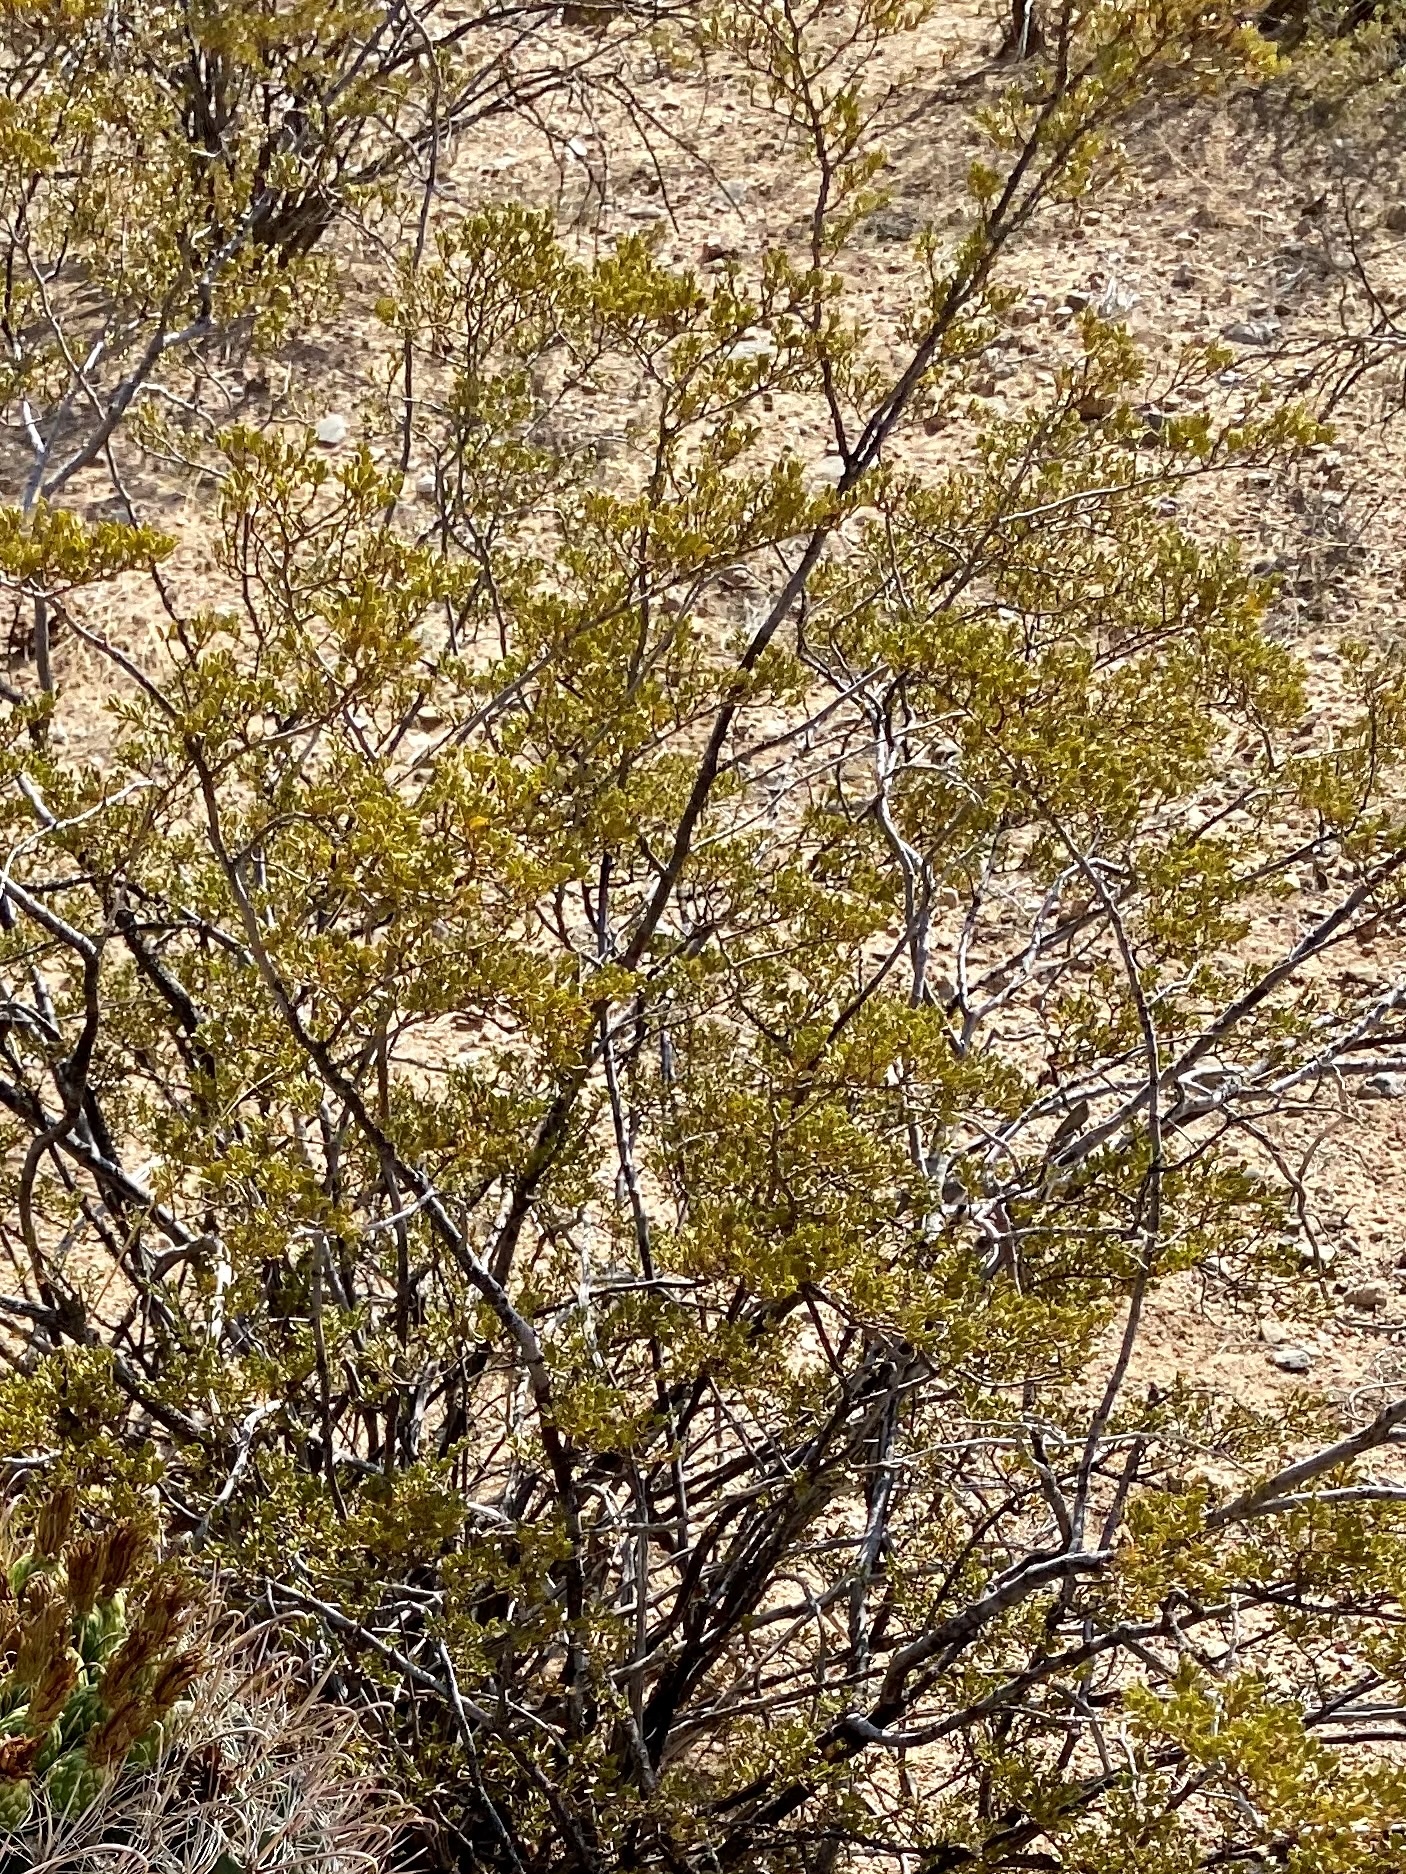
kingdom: Plantae
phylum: Tracheophyta
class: Magnoliopsida
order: Zygophyllales
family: Zygophyllaceae
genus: Larrea
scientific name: Larrea tridentata
